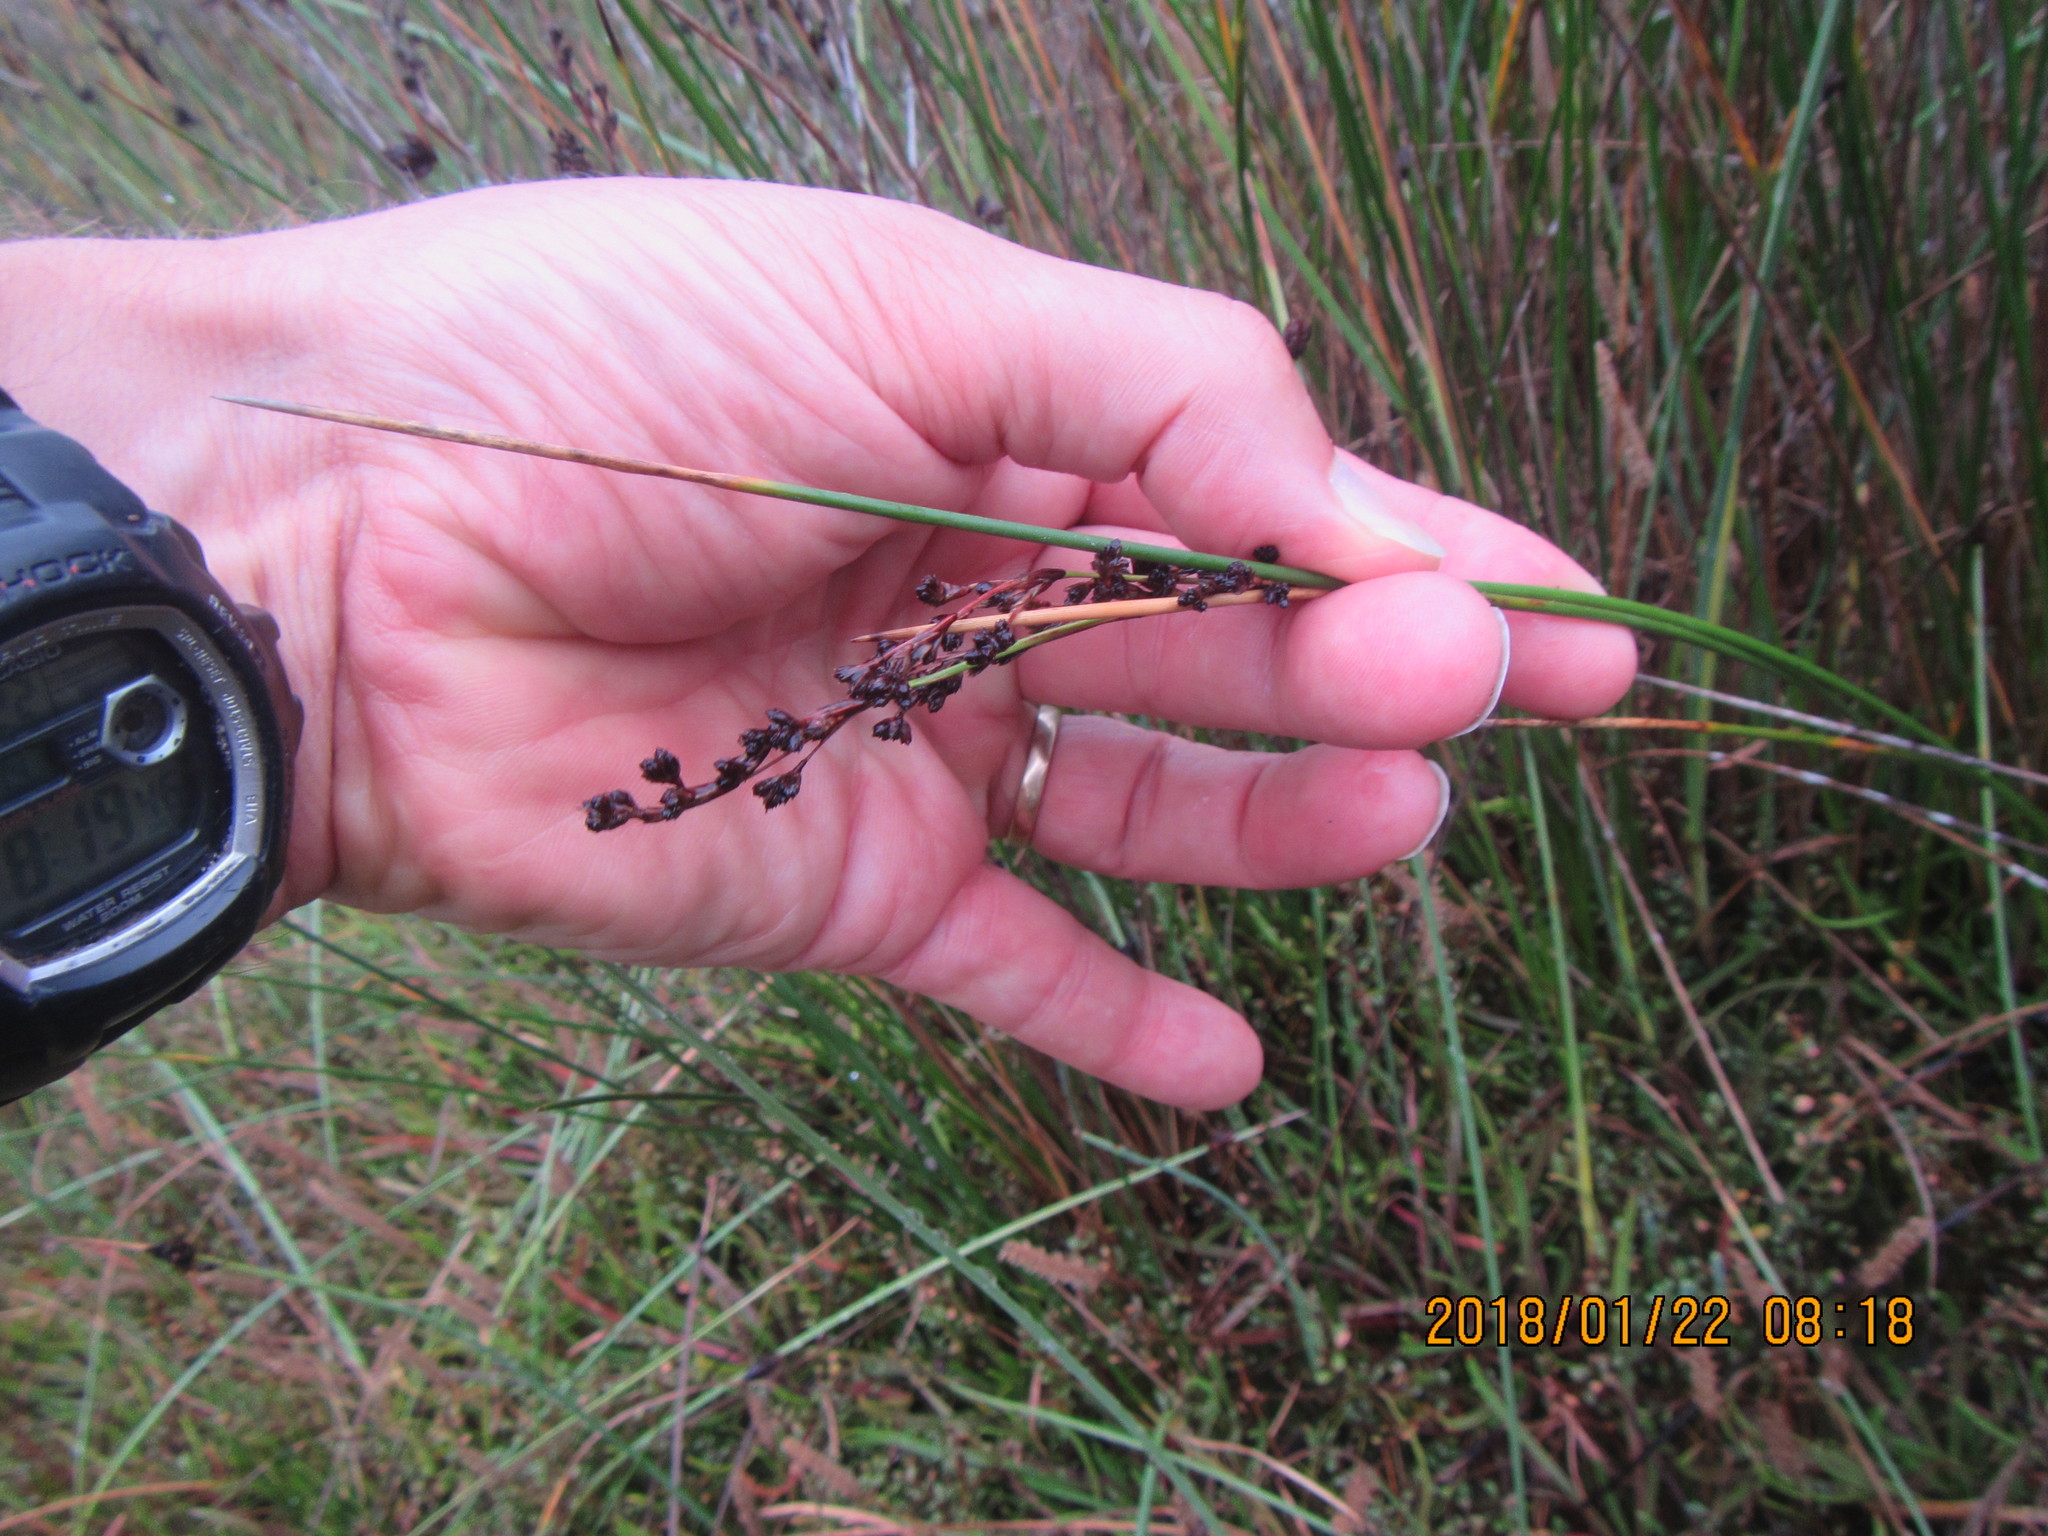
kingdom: Plantae
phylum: Tracheophyta
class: Liliopsida
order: Poales
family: Juncaceae
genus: Juncus
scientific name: Juncus kraussii
